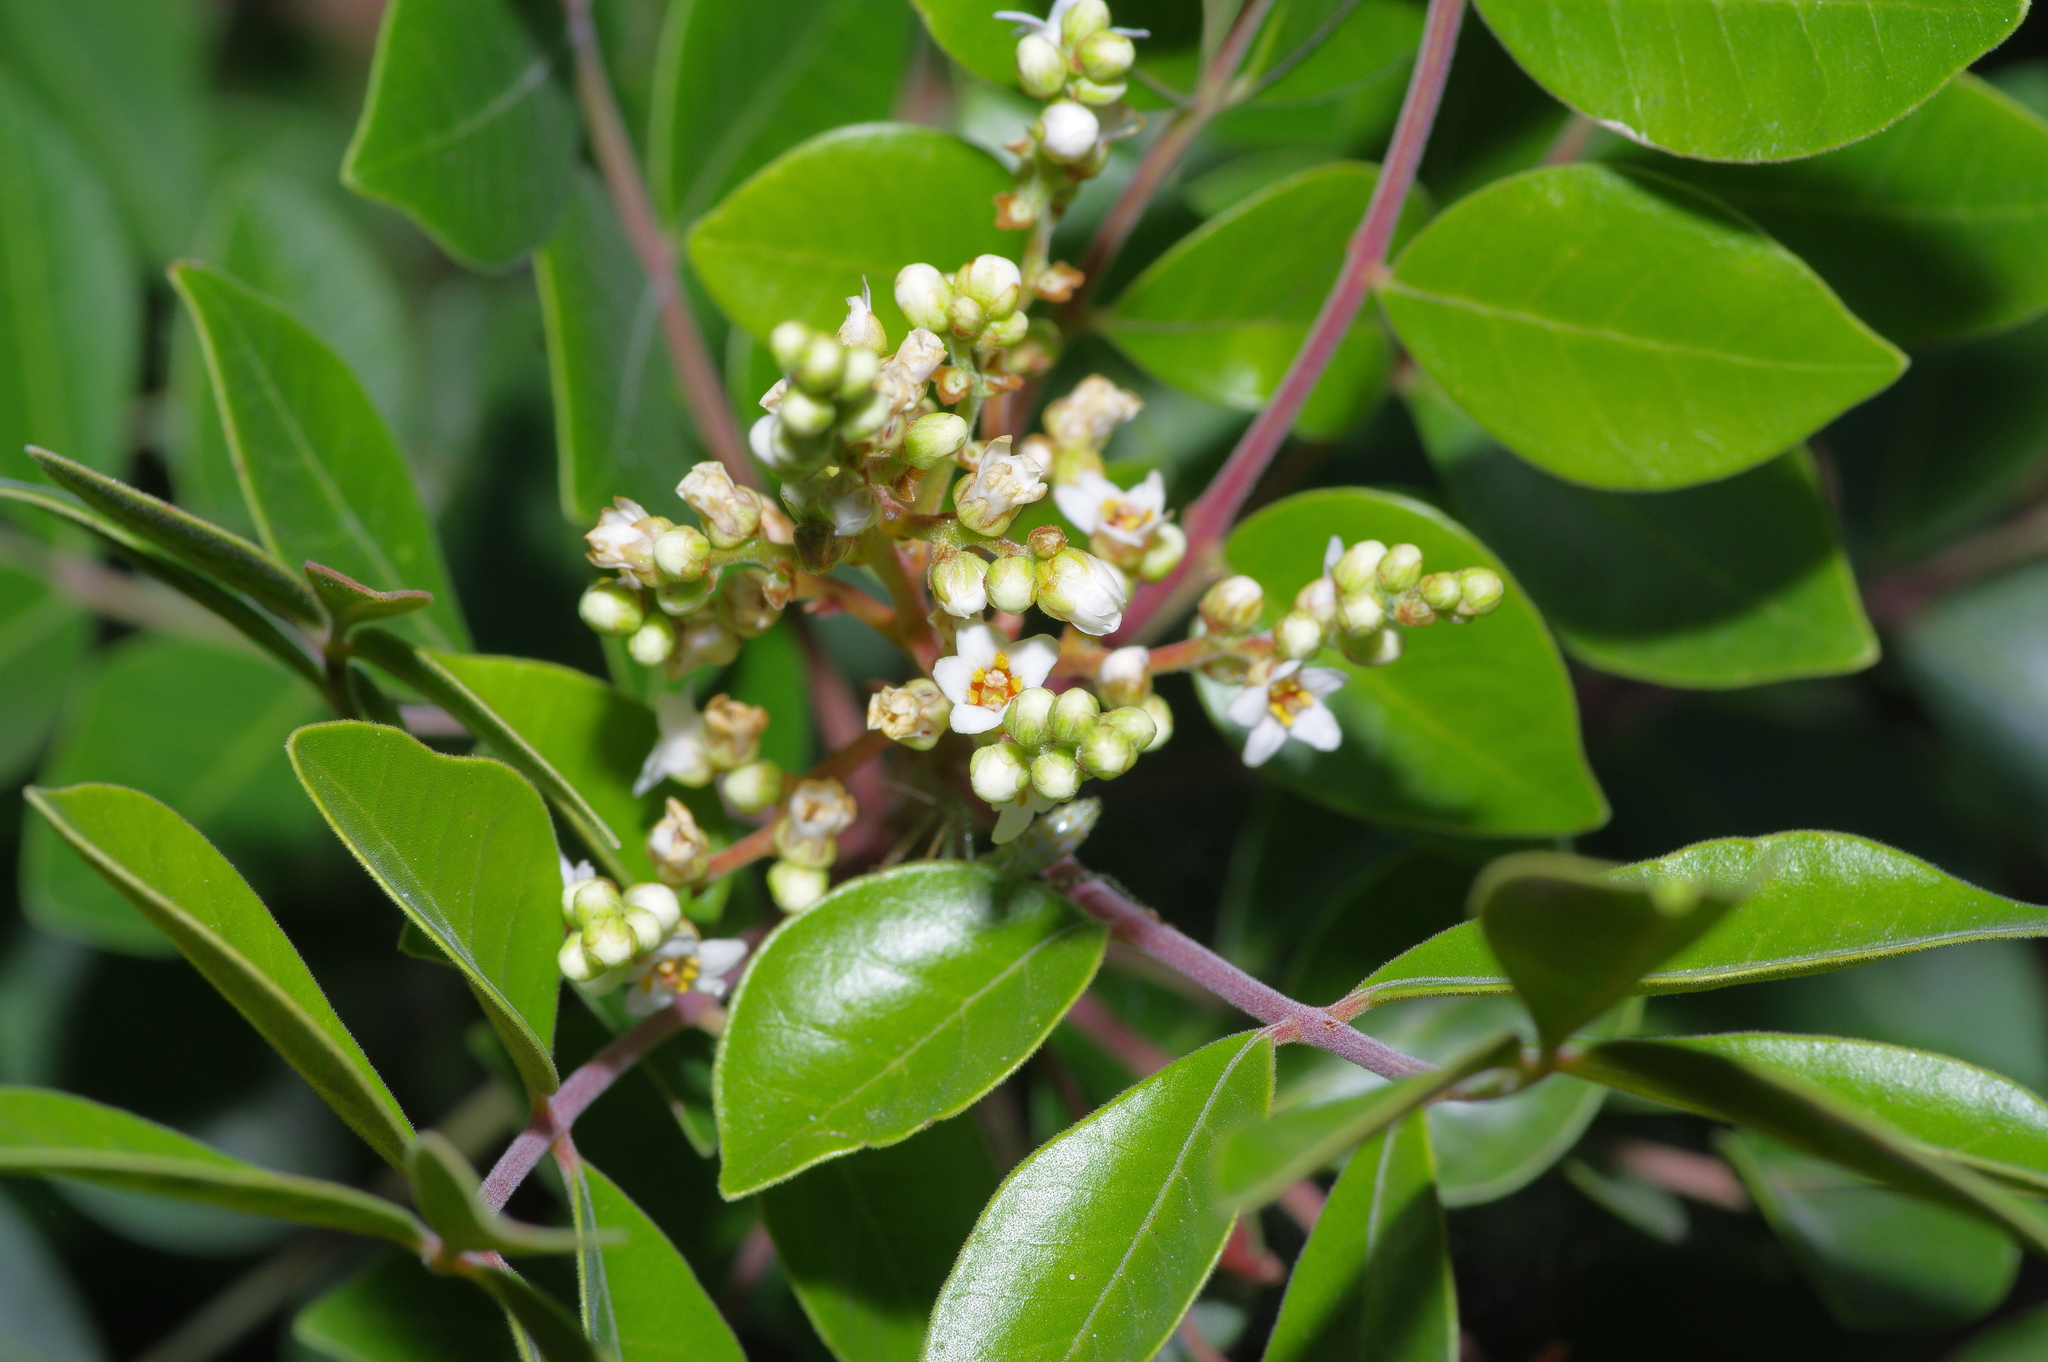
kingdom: Plantae
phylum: Tracheophyta
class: Magnoliopsida
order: Sapindales
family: Anacardiaceae
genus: Rhus
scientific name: Rhus virens
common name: Evergreen sumac
